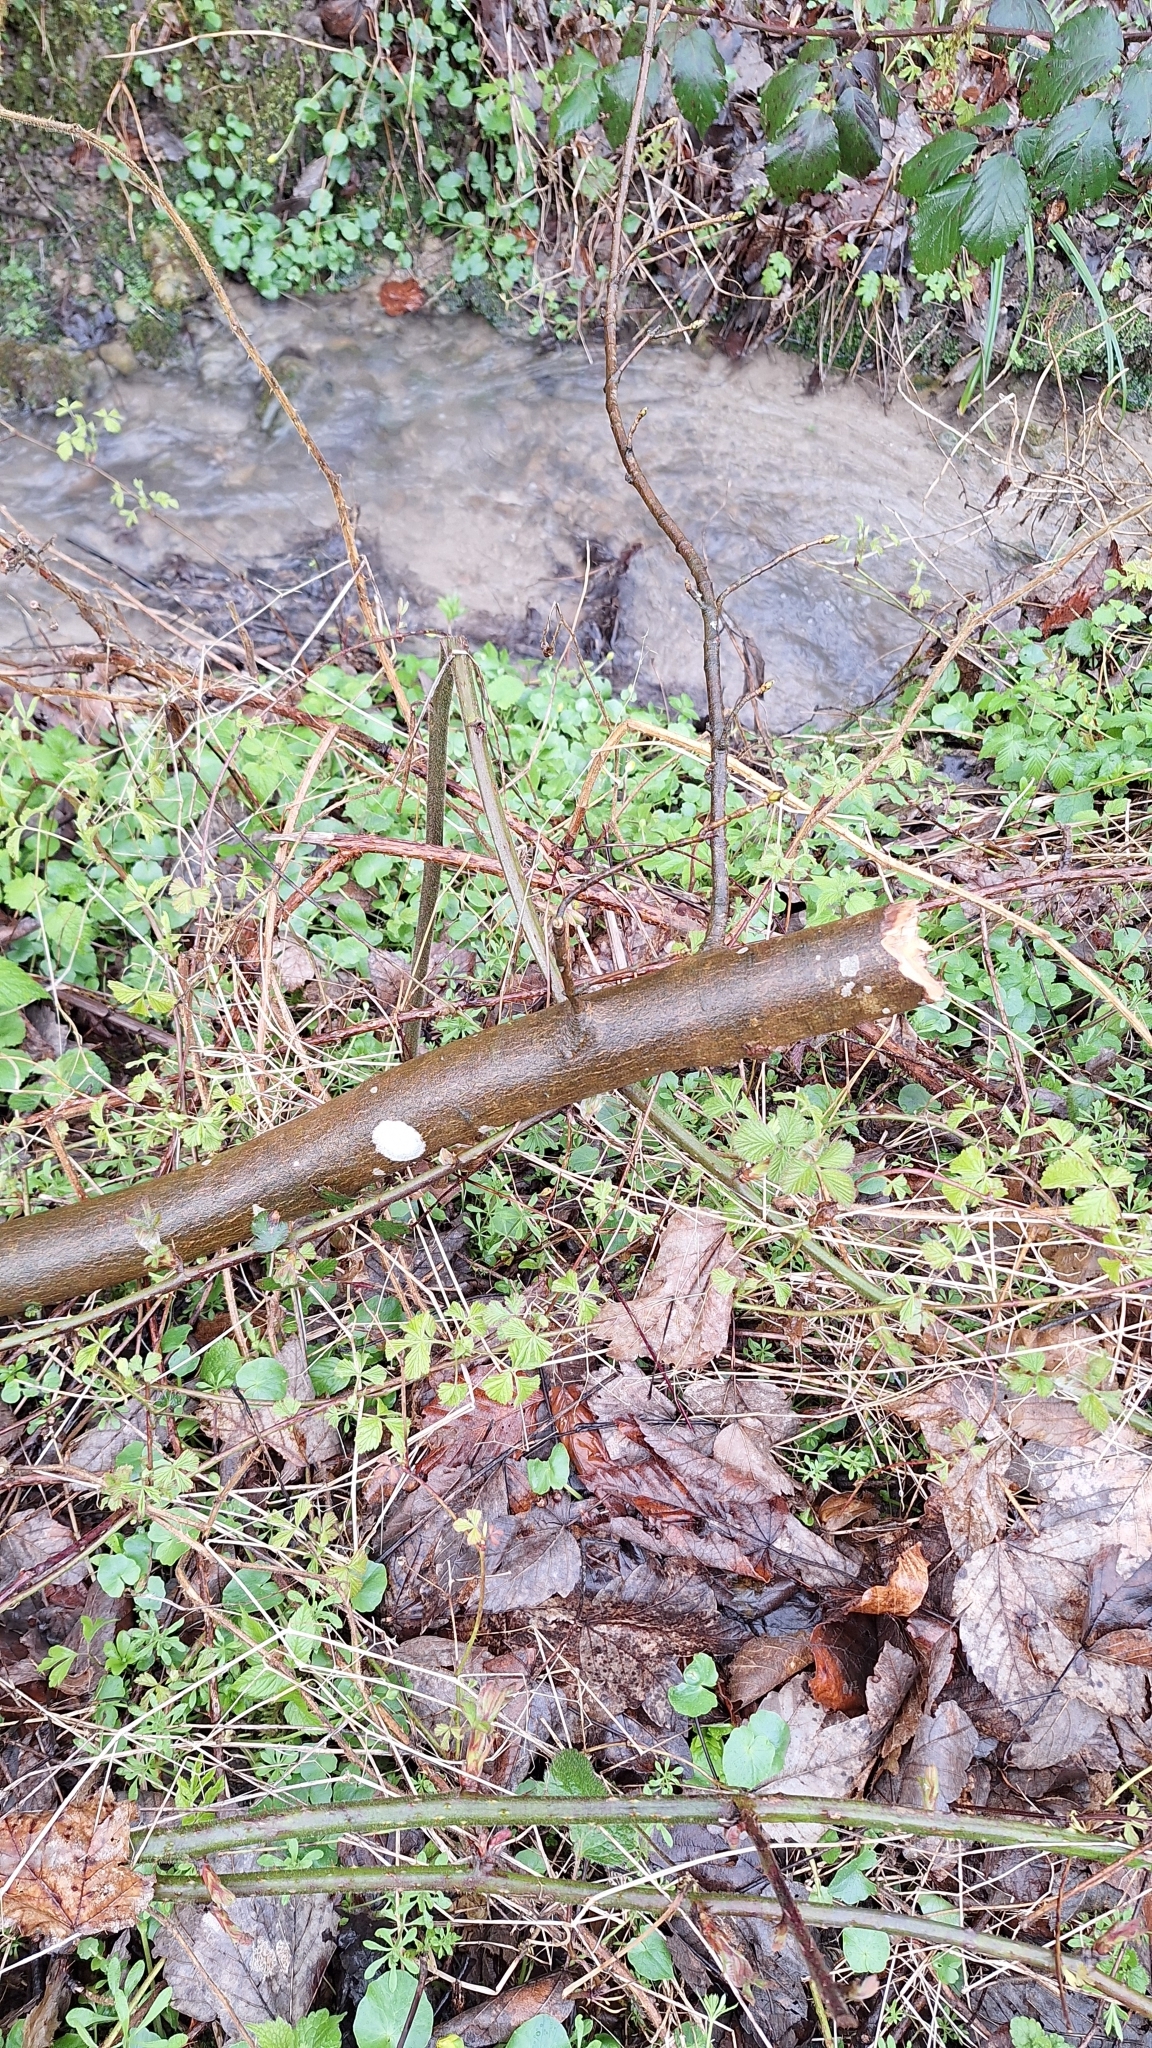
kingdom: Fungi
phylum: Ascomycota
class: Lecanoromycetes
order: Ostropales
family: Phlyctidaceae
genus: Phlyctis
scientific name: Phlyctis argena
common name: Whitewash lichen
